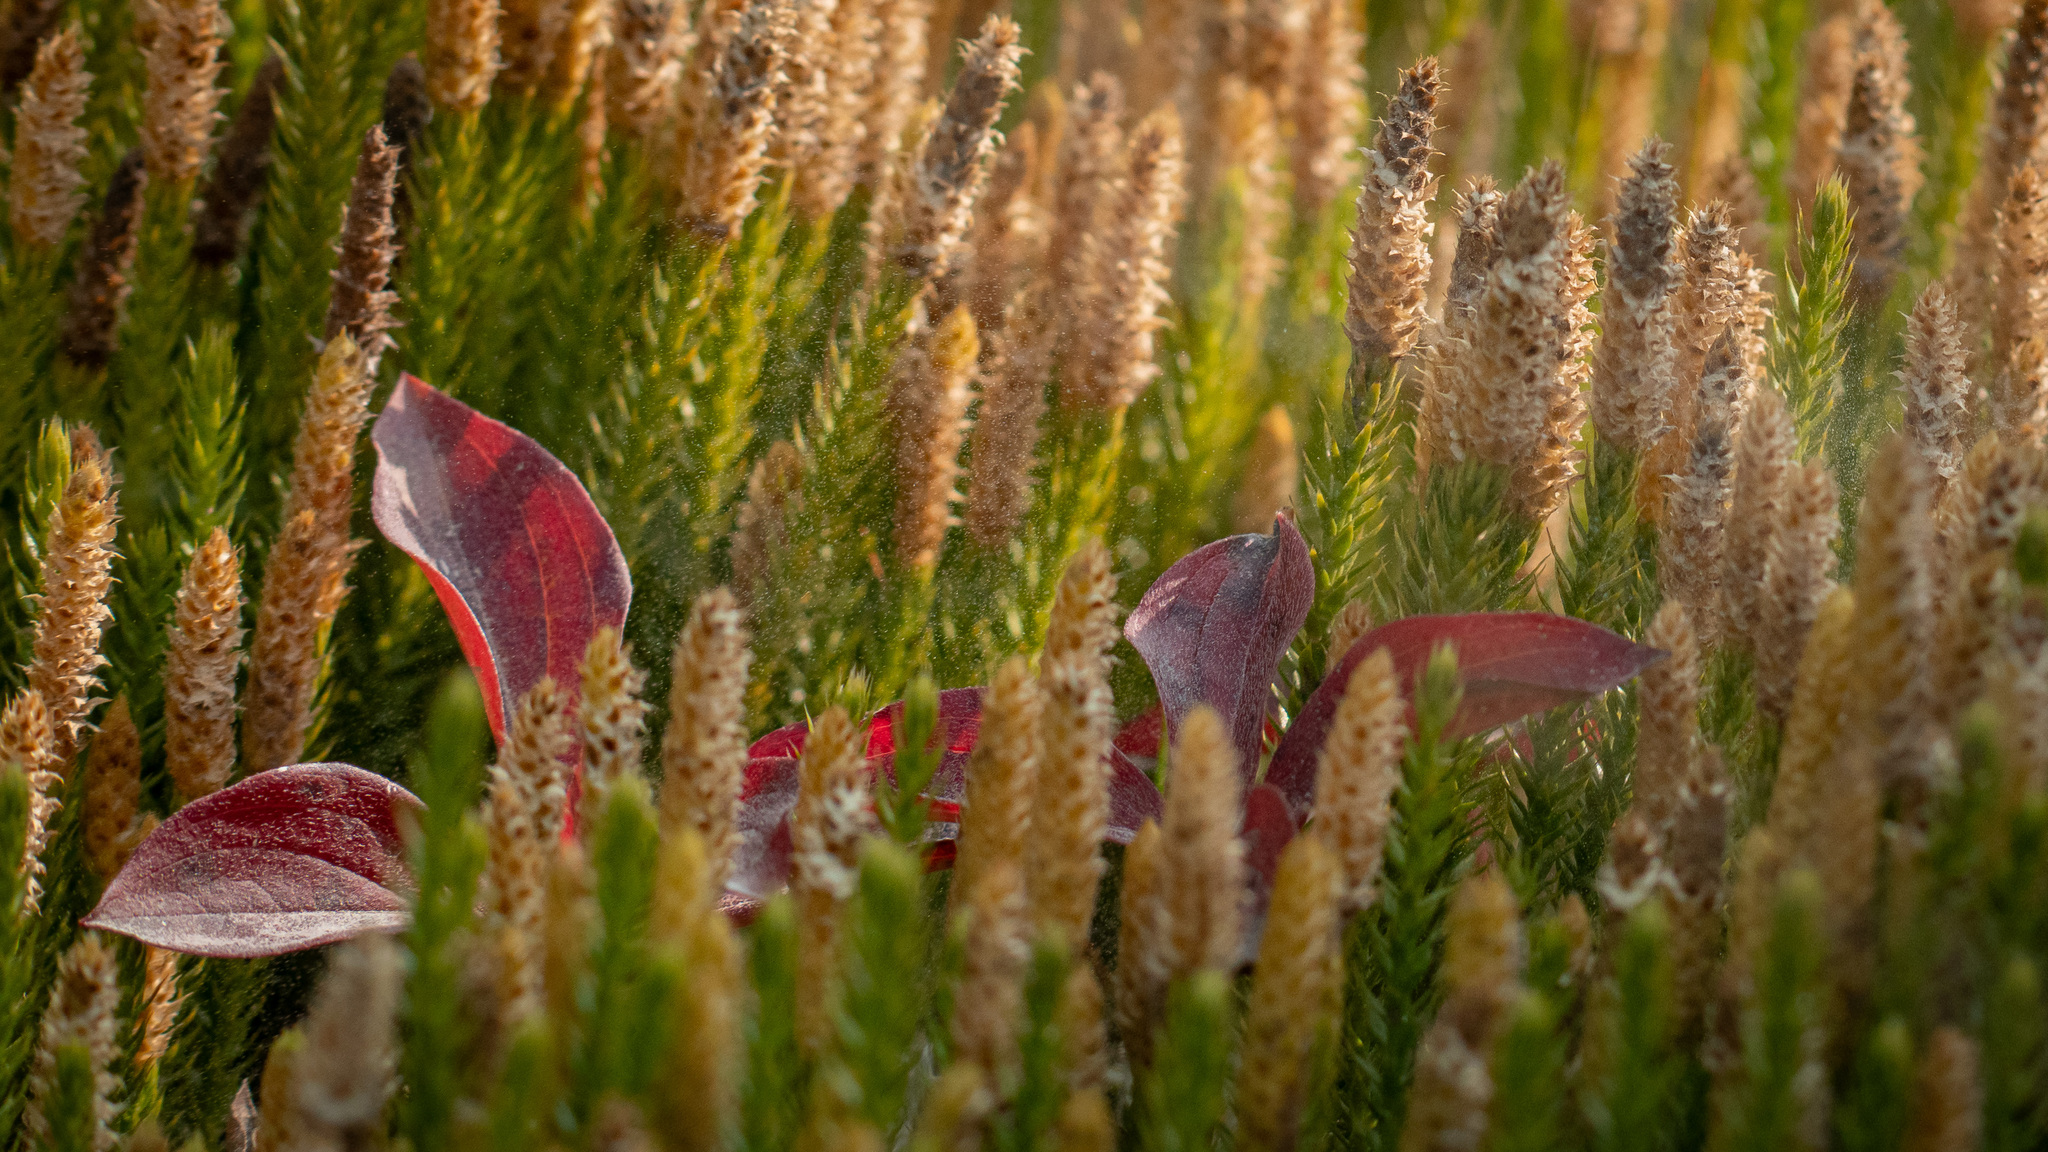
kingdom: Plantae
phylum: Tracheophyta
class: Lycopodiopsida
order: Lycopodiales
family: Lycopodiaceae
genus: Spinulum
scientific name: Spinulum annotinum
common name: Interrupted club-moss
